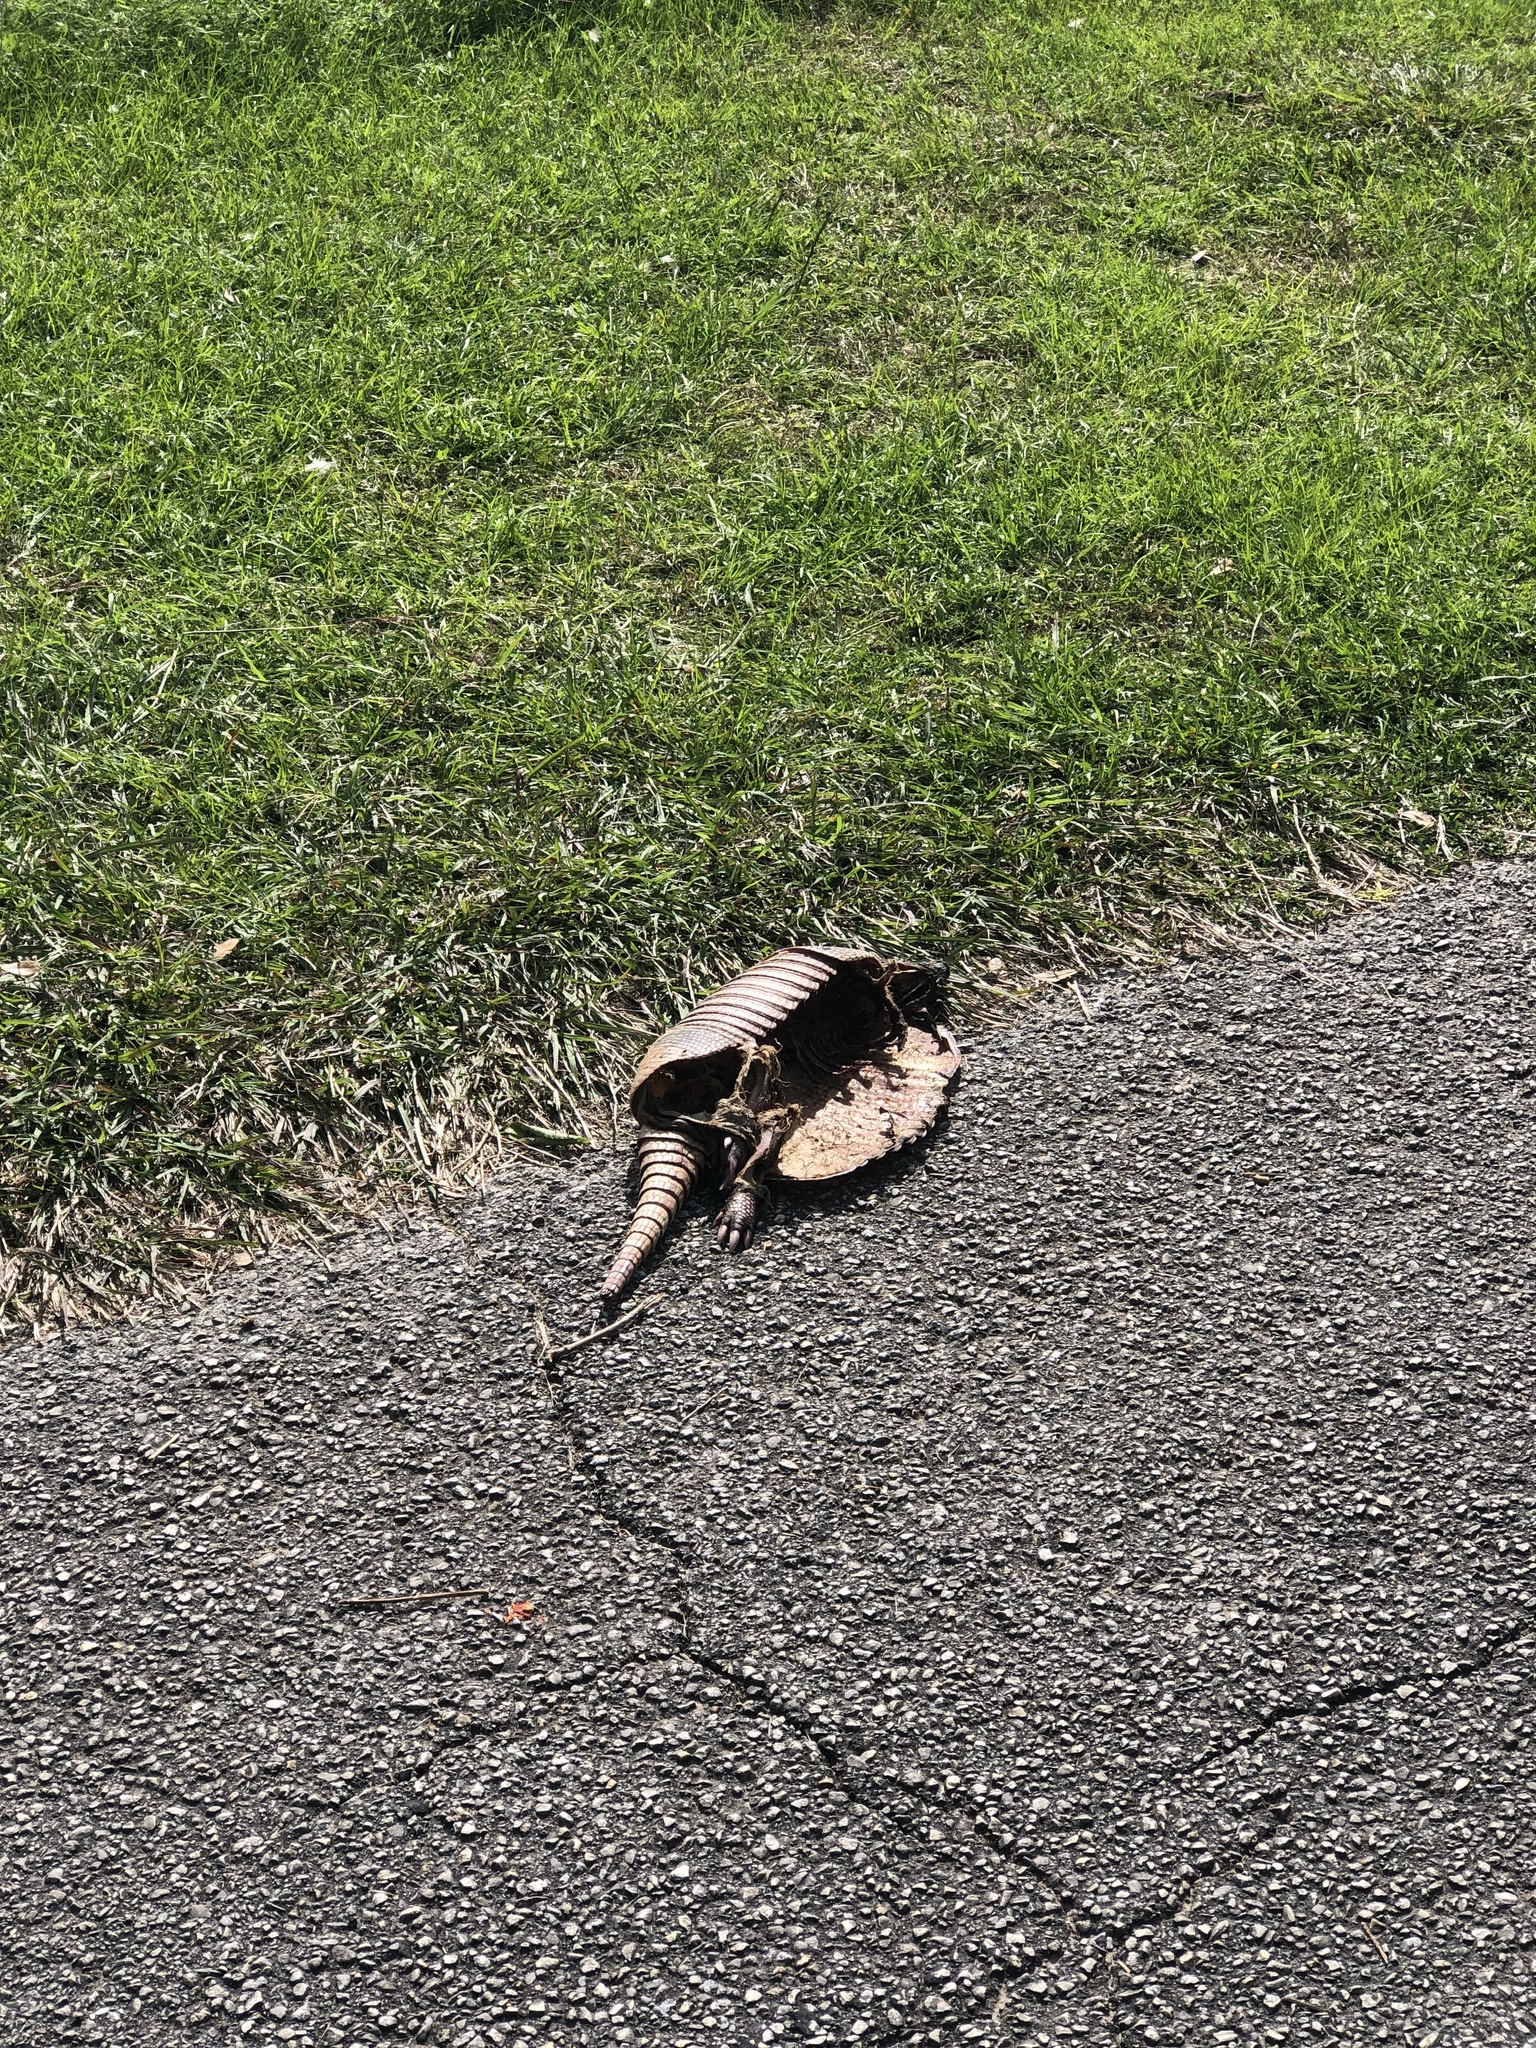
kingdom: Animalia
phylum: Chordata
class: Mammalia
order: Cingulata
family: Dasypodidae
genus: Dasypus
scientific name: Dasypus novemcinctus
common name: Nine-banded armadillo
